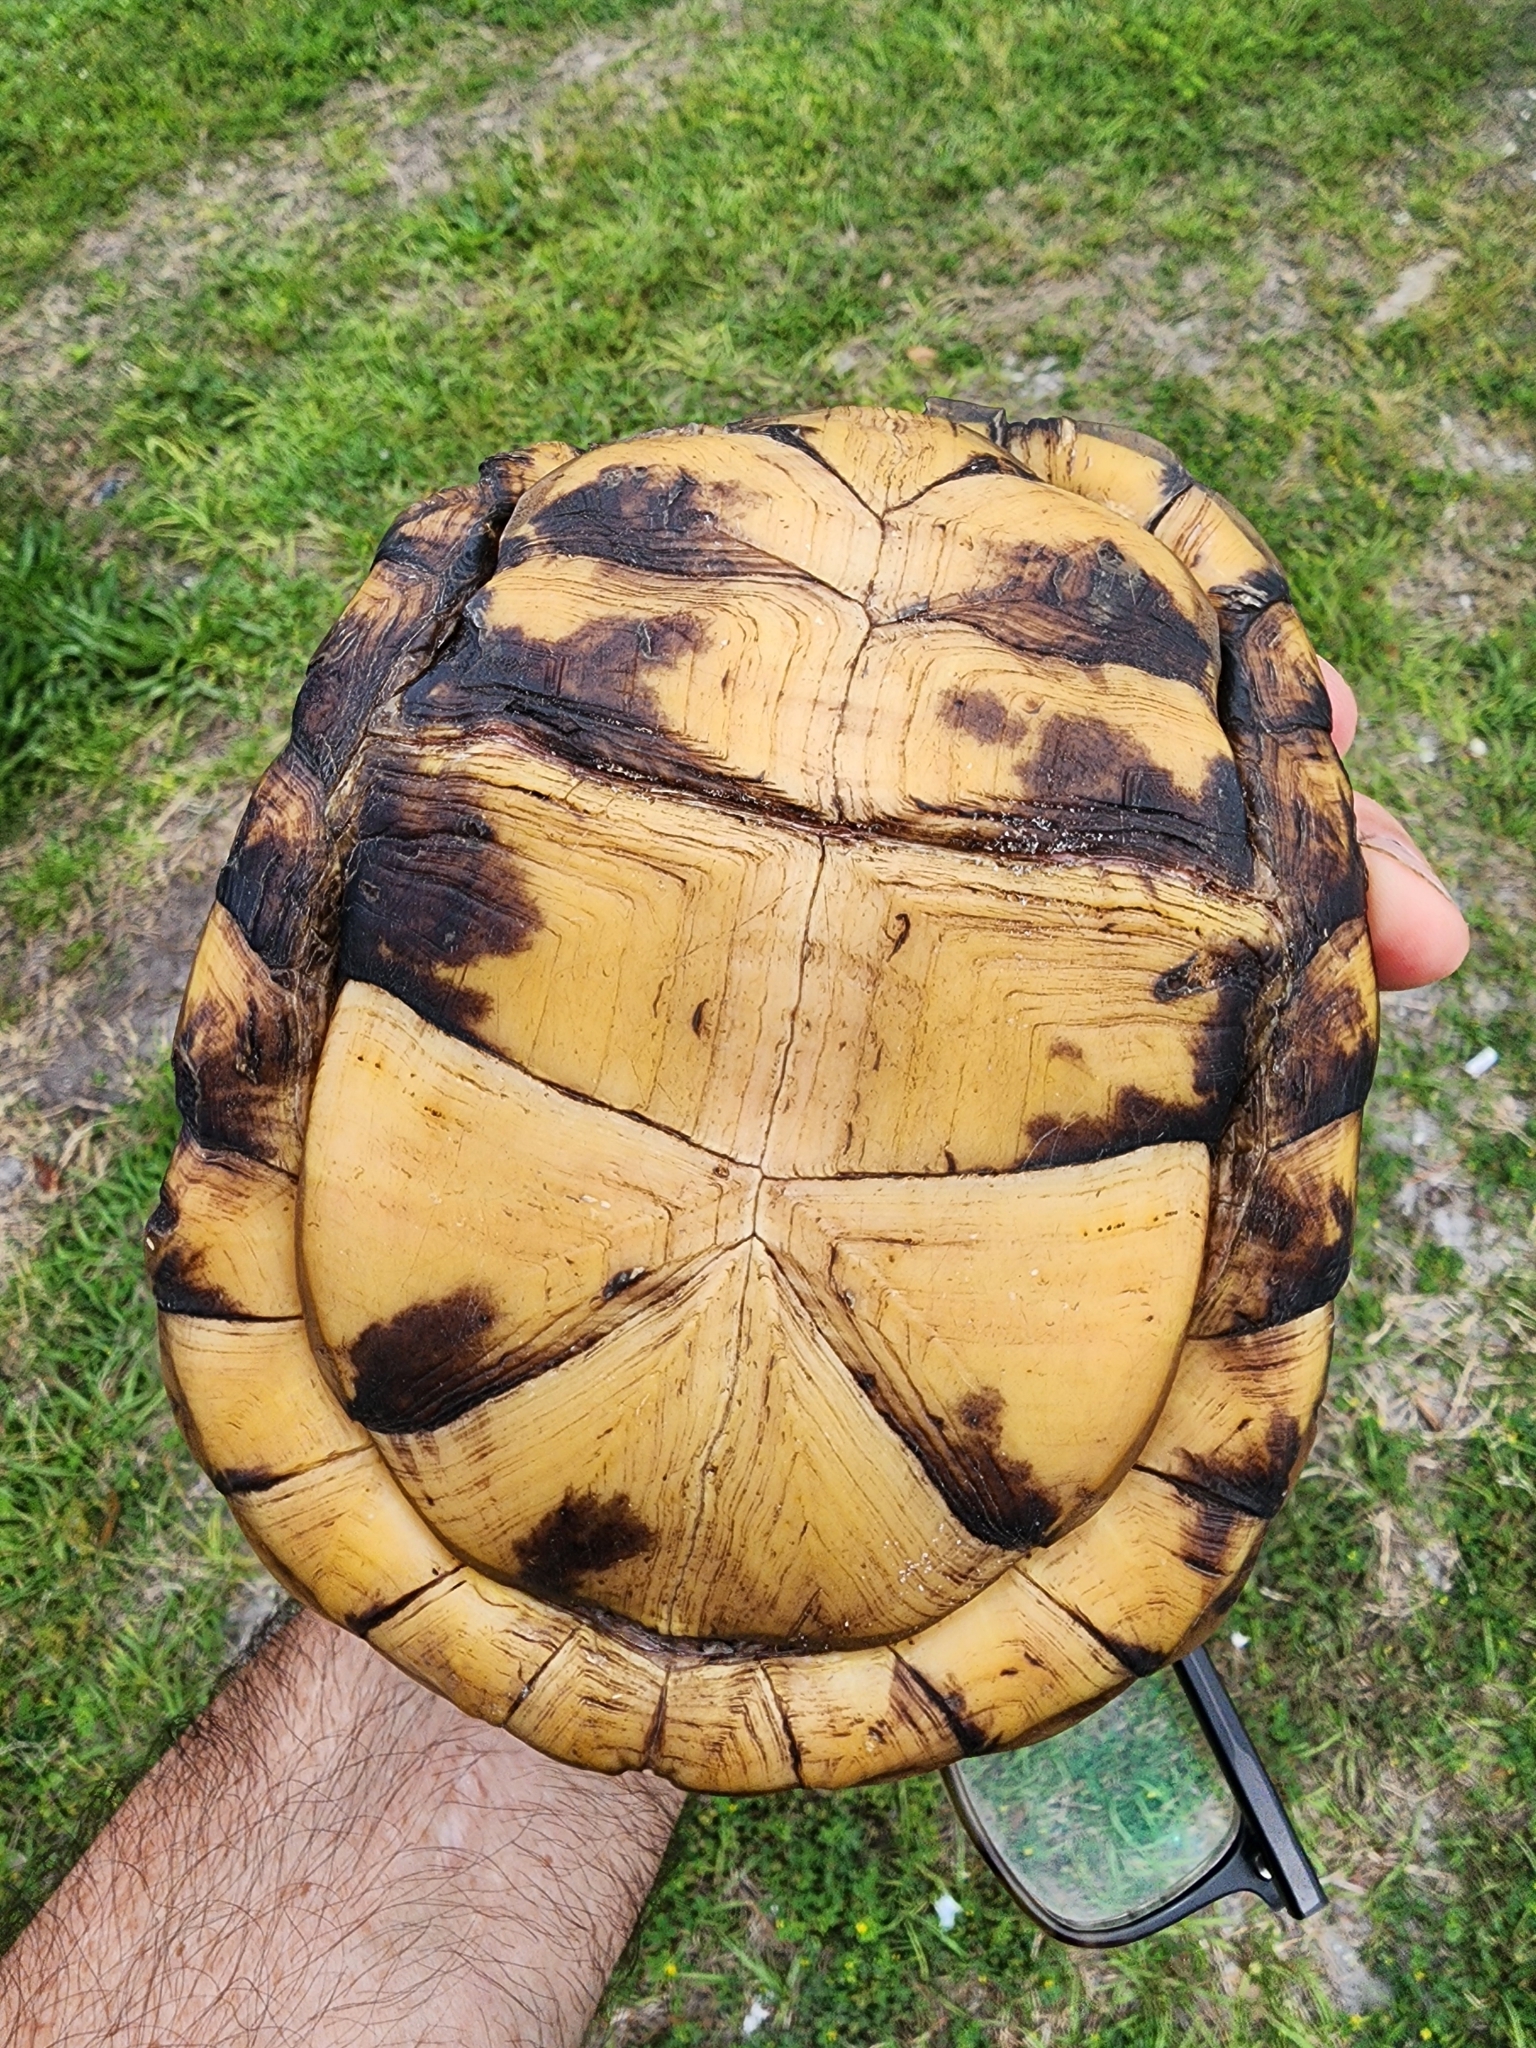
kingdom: Animalia
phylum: Chordata
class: Testudines
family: Emydidae
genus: Terrapene
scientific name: Terrapene carolina
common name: Common box turtle
